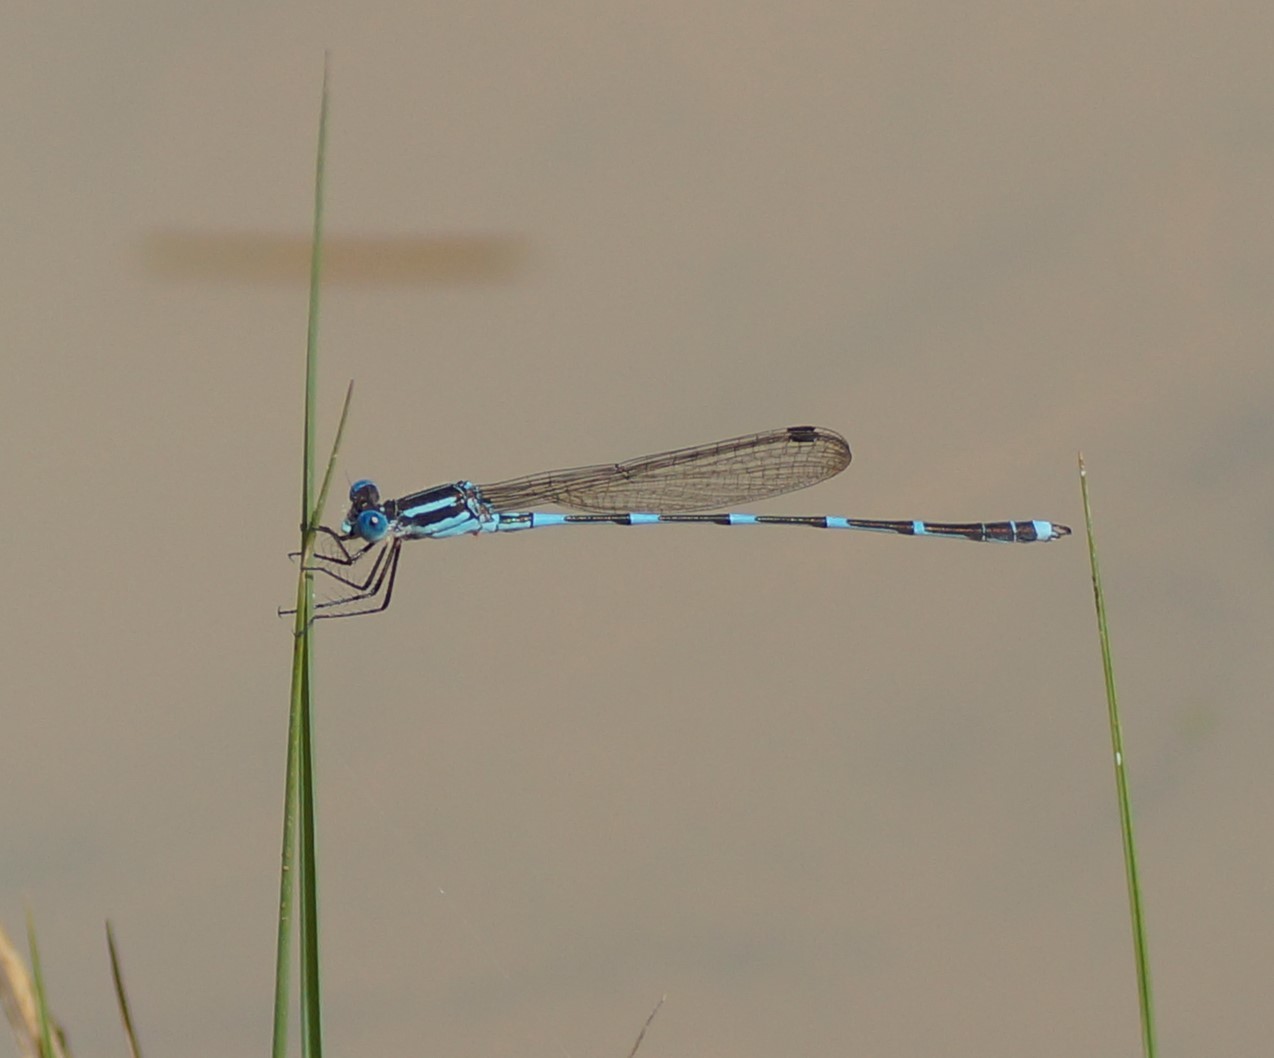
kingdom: Animalia
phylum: Arthropoda
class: Insecta
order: Odonata
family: Lestidae
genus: Austrolestes
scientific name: Austrolestes leda
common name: Wandering ringtail
